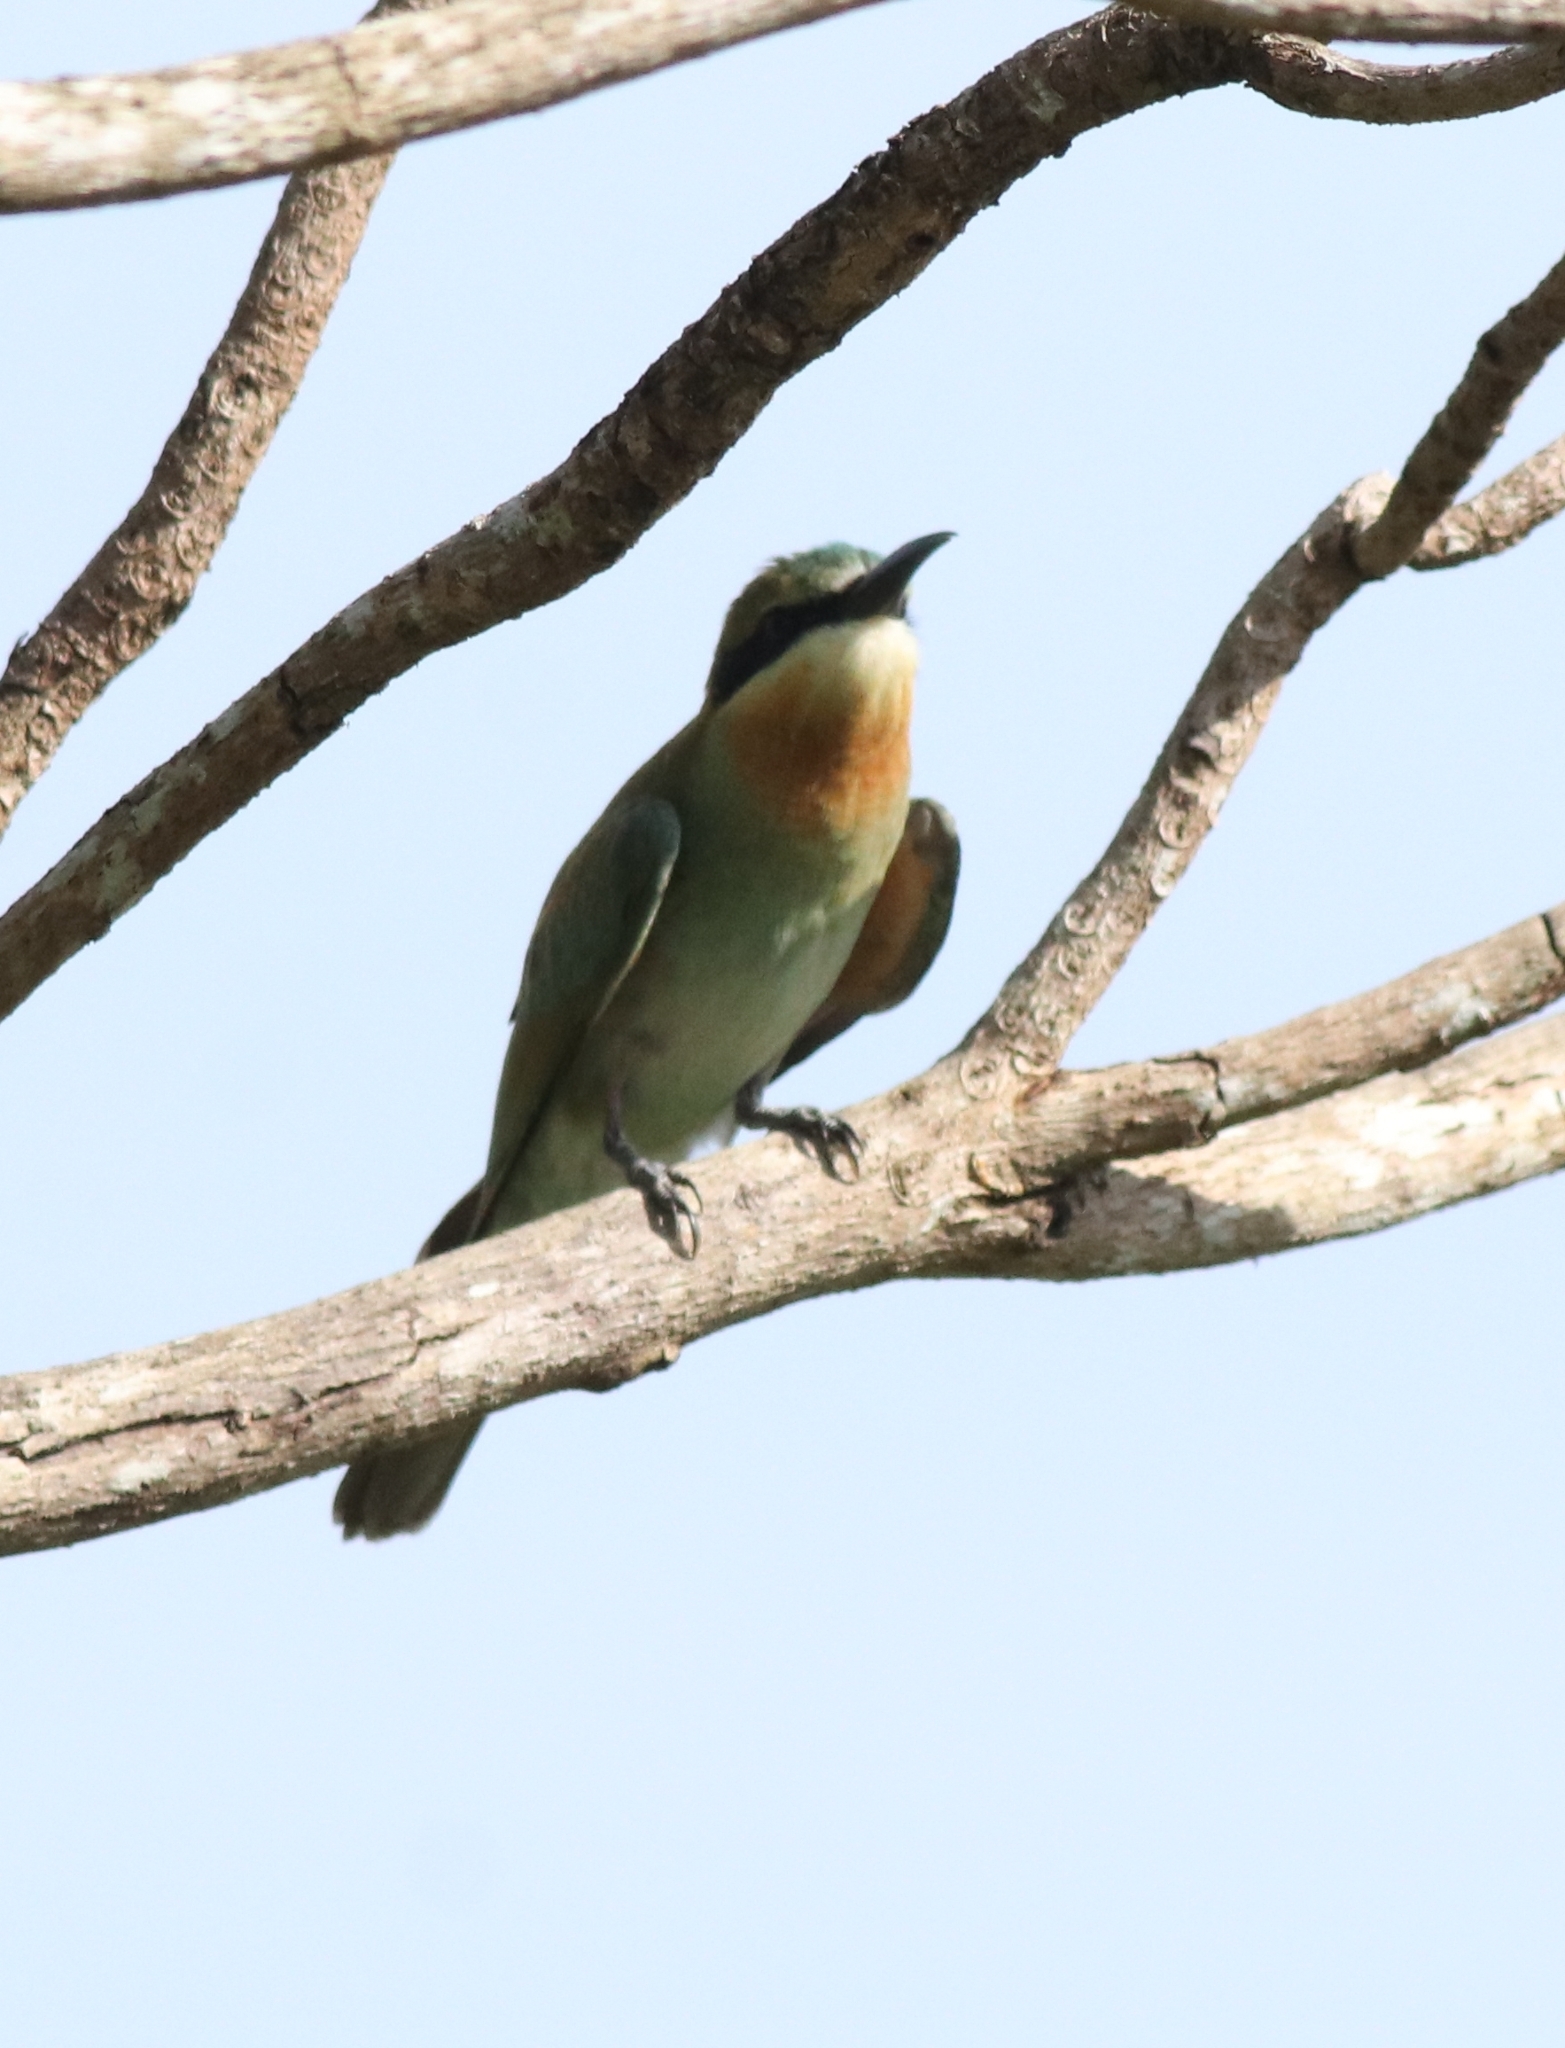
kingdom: Animalia
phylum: Chordata
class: Aves
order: Coraciiformes
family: Meropidae
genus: Merops
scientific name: Merops philippinus
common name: Blue-tailed bee-eater
